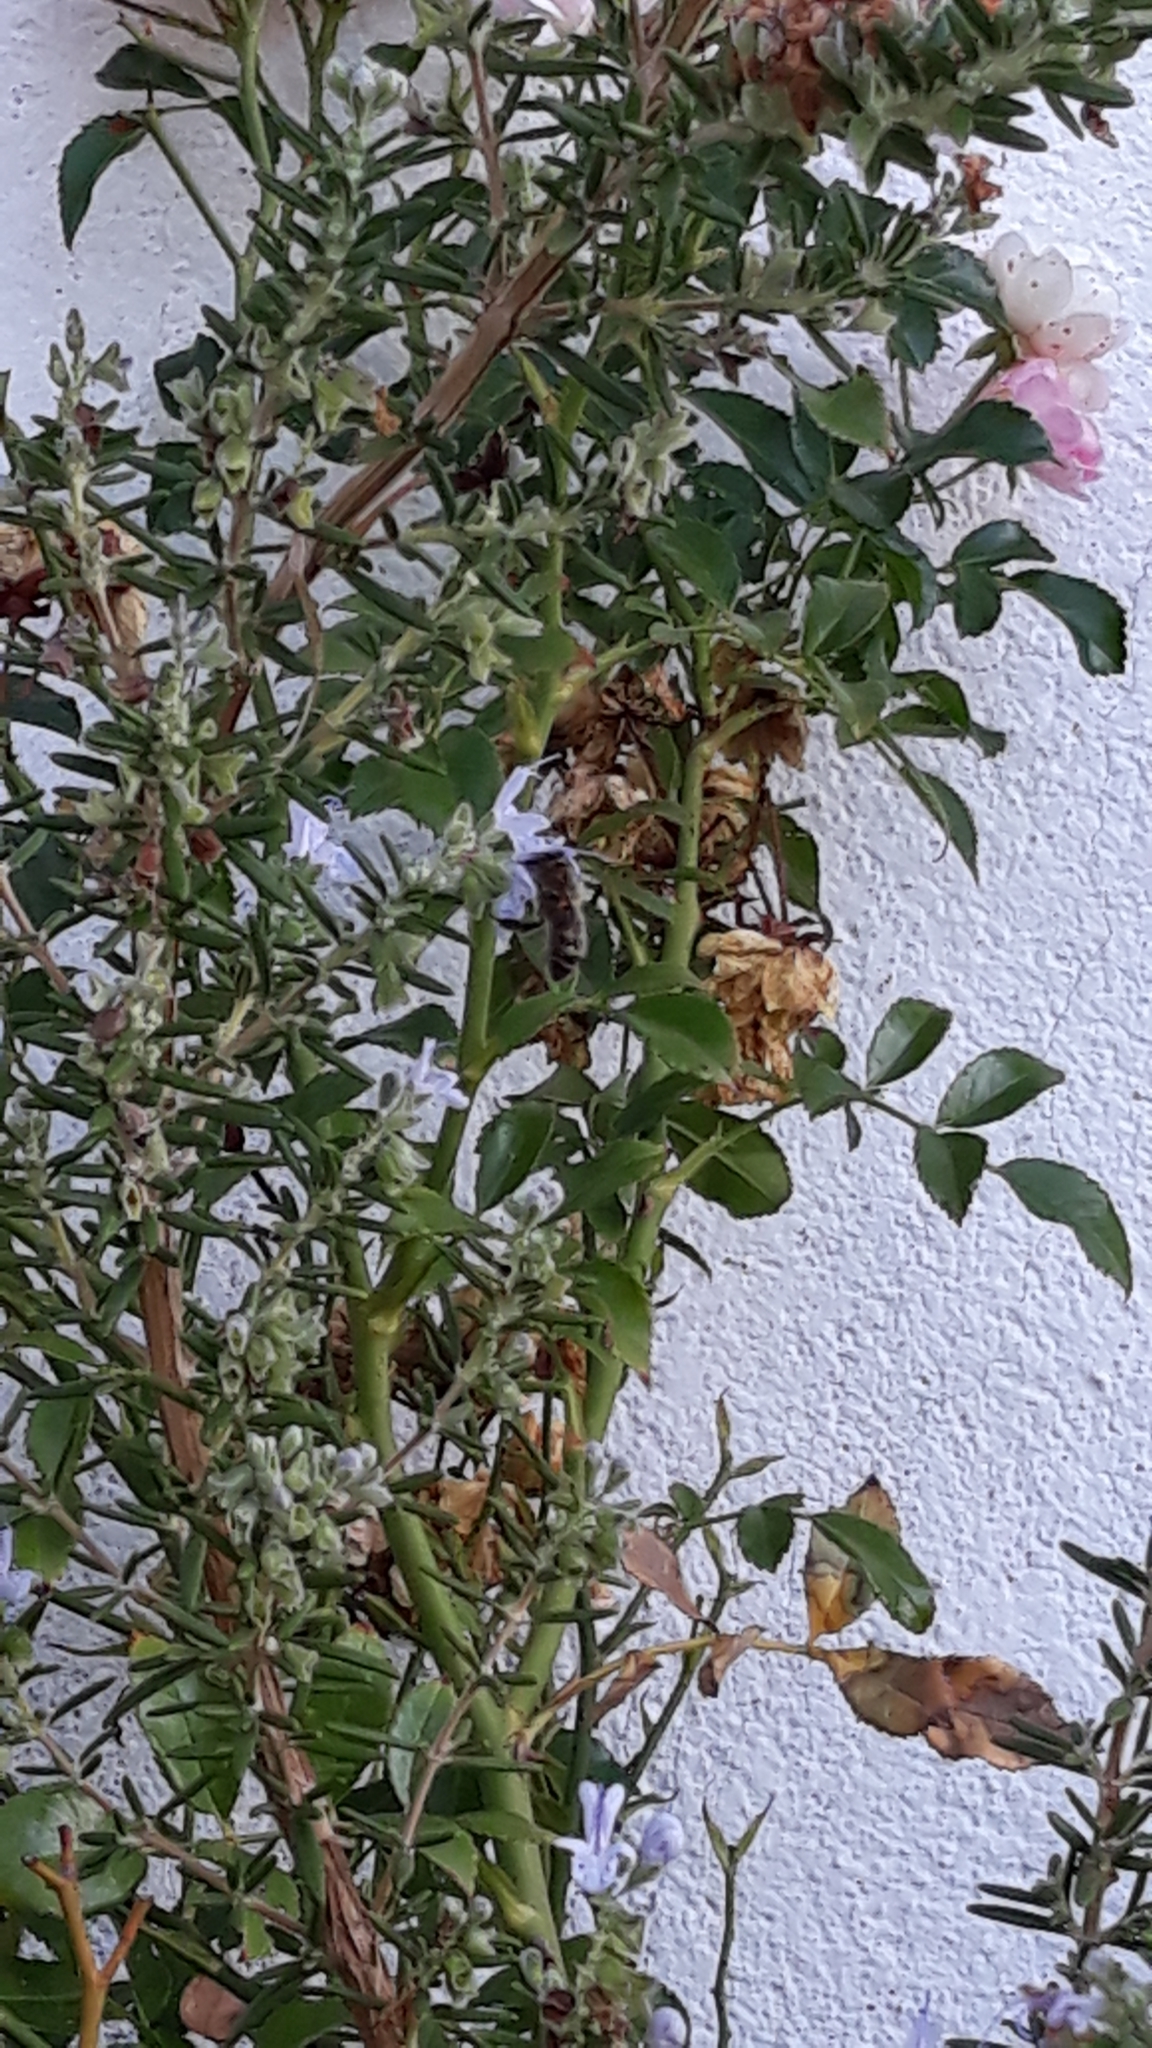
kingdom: Animalia
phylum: Arthropoda
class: Insecta
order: Hymenoptera
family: Apidae
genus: Apis
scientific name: Apis mellifera
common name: Honey bee
